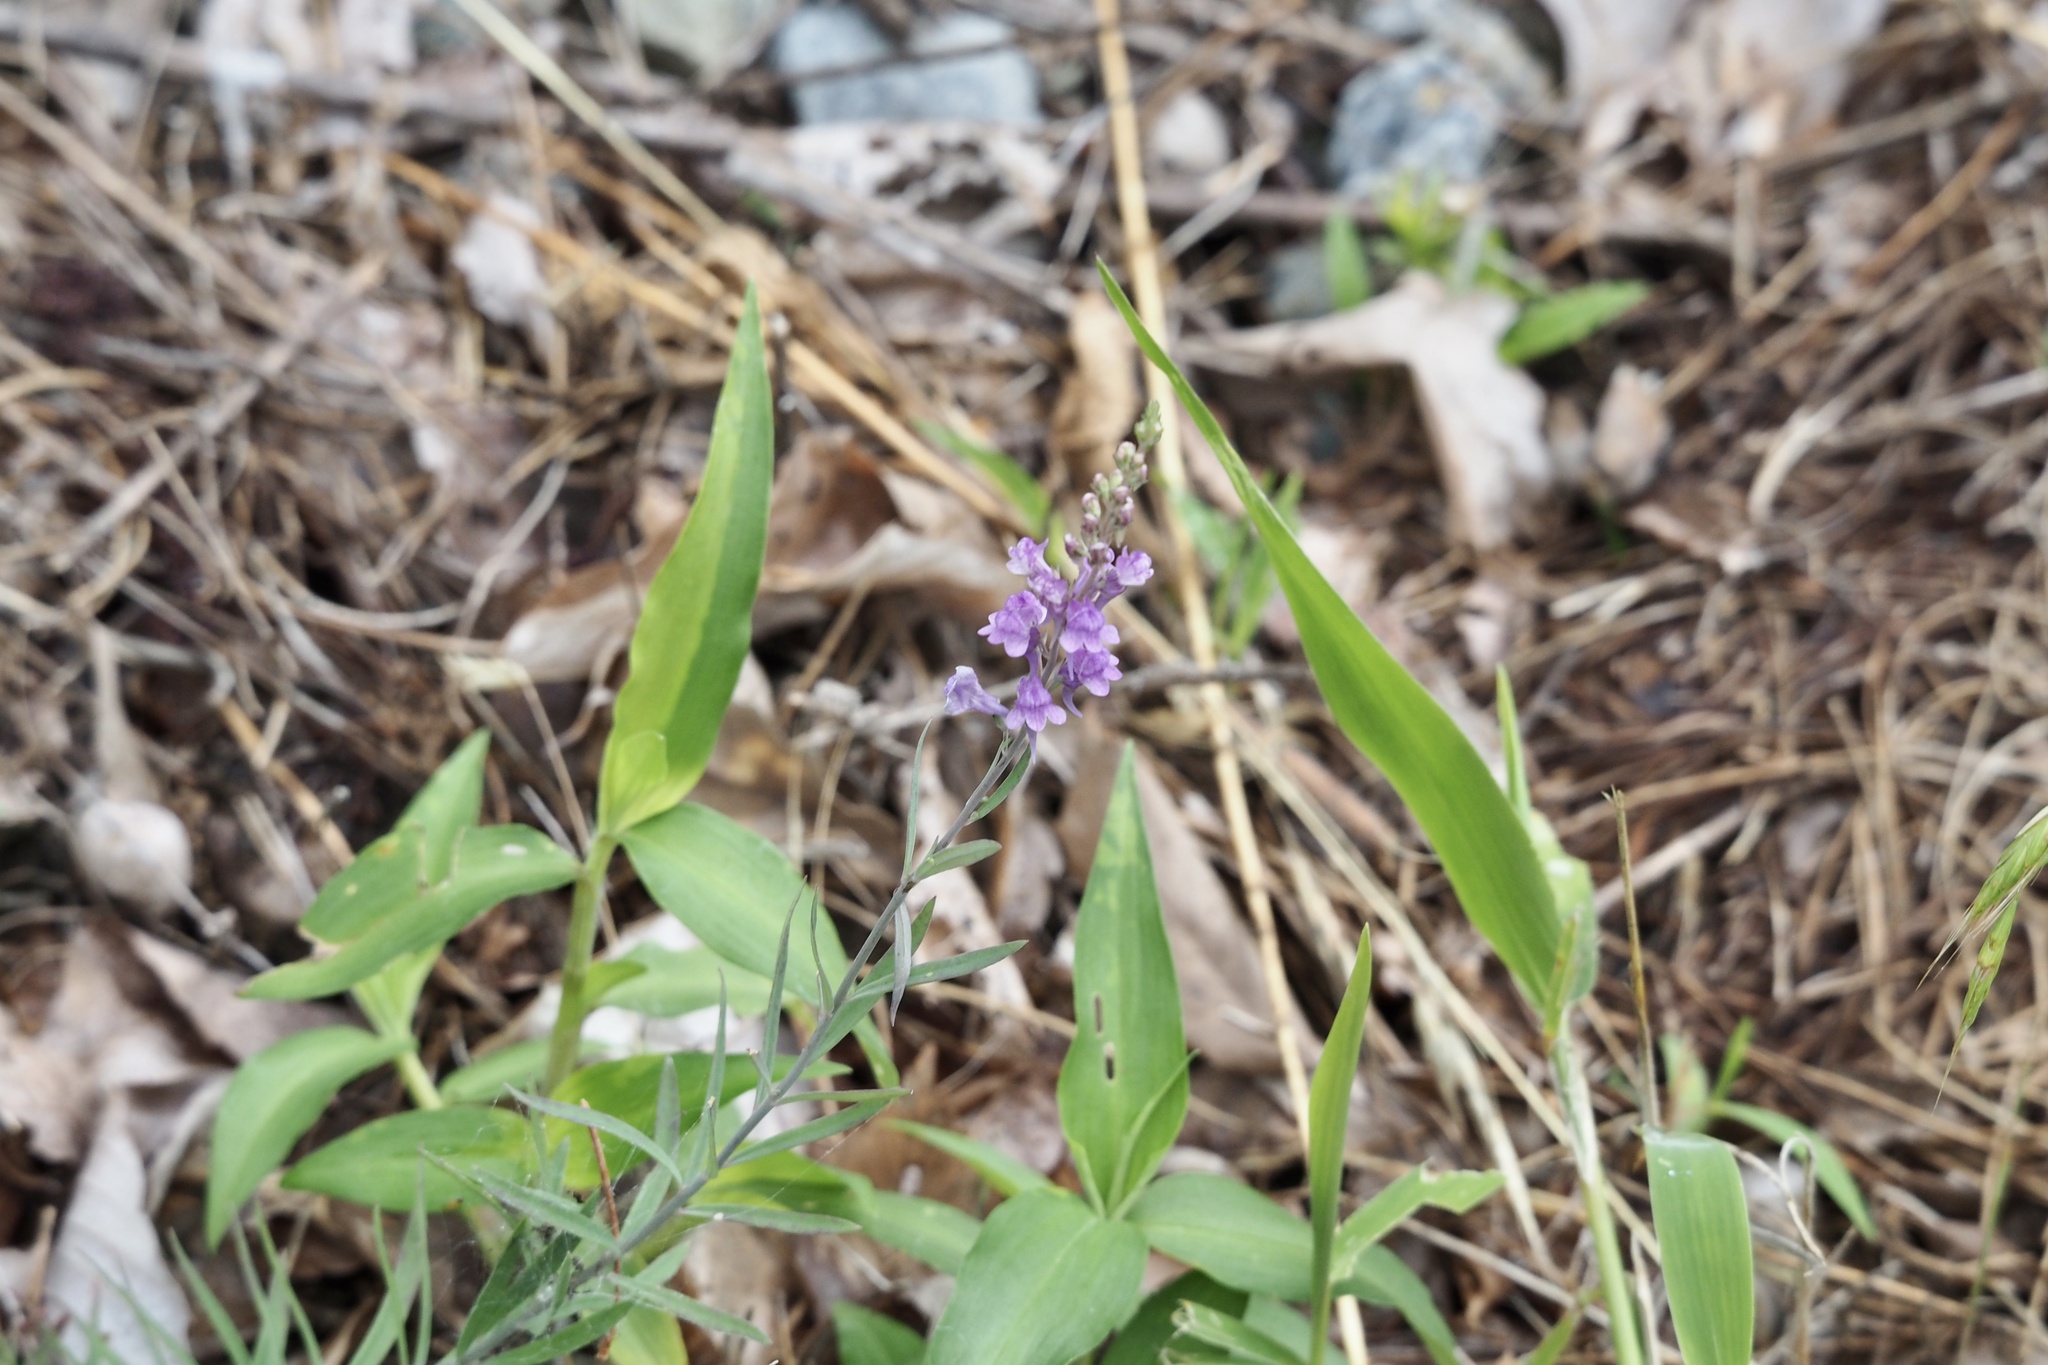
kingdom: Plantae
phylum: Tracheophyta
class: Magnoliopsida
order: Lamiales
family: Plantaginaceae
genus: Linaria
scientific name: Linaria purpurea
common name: Purple toadflax
